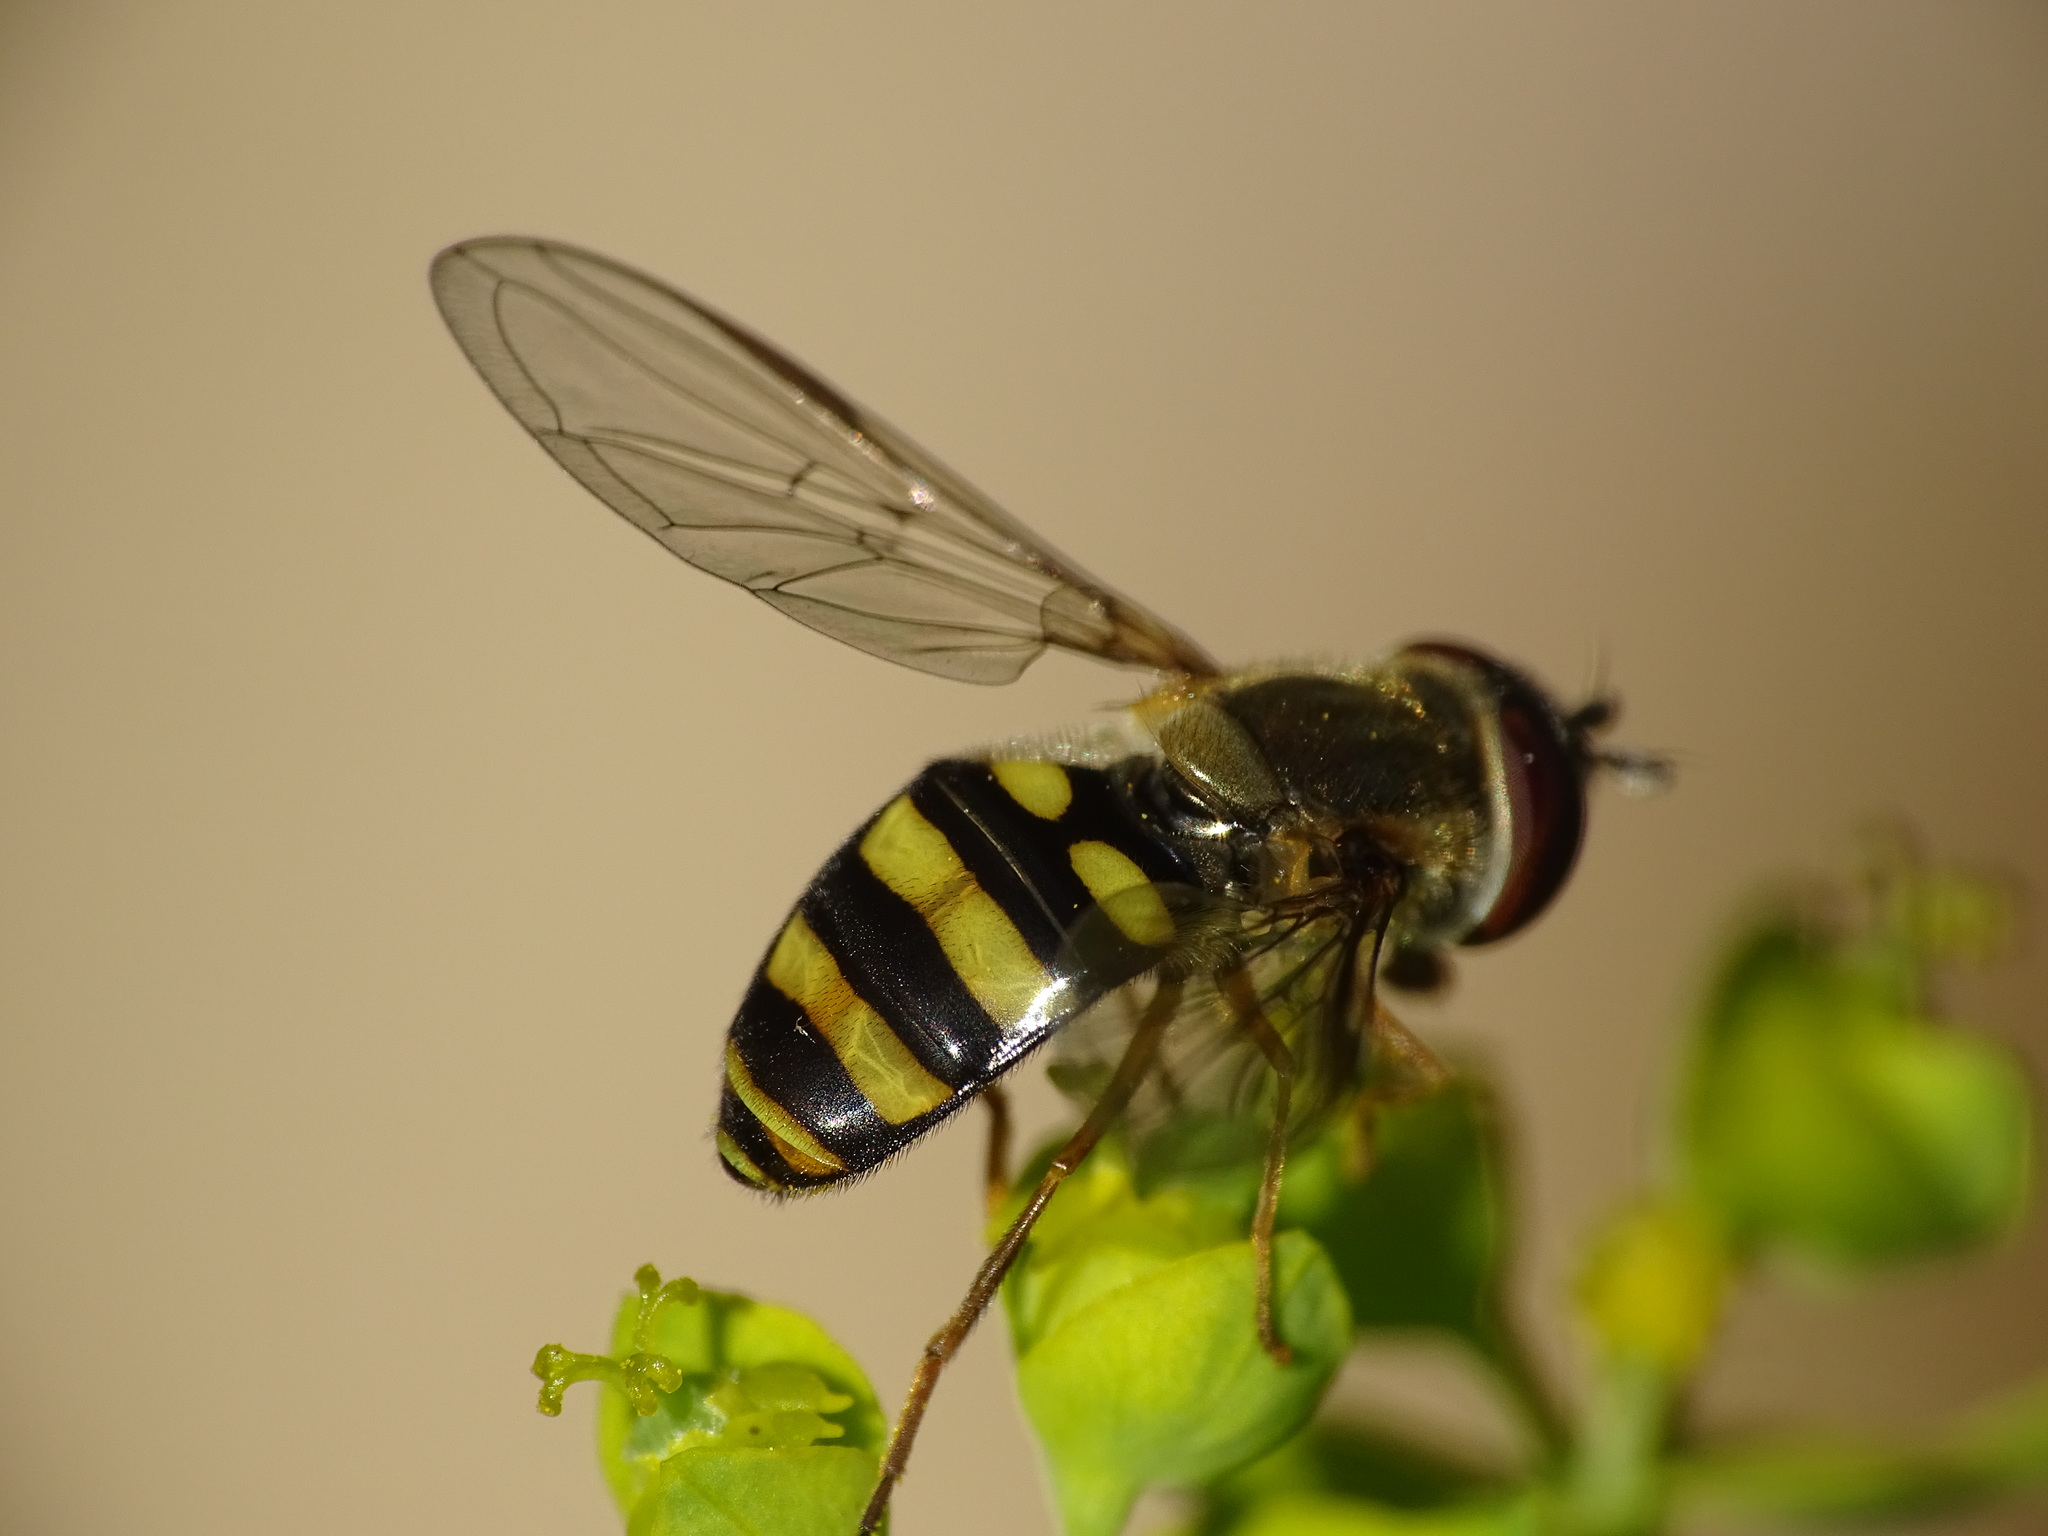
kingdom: Animalia
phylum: Arthropoda
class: Insecta
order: Diptera
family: Syrphidae
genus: Eupeodes
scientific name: Eupeodes
